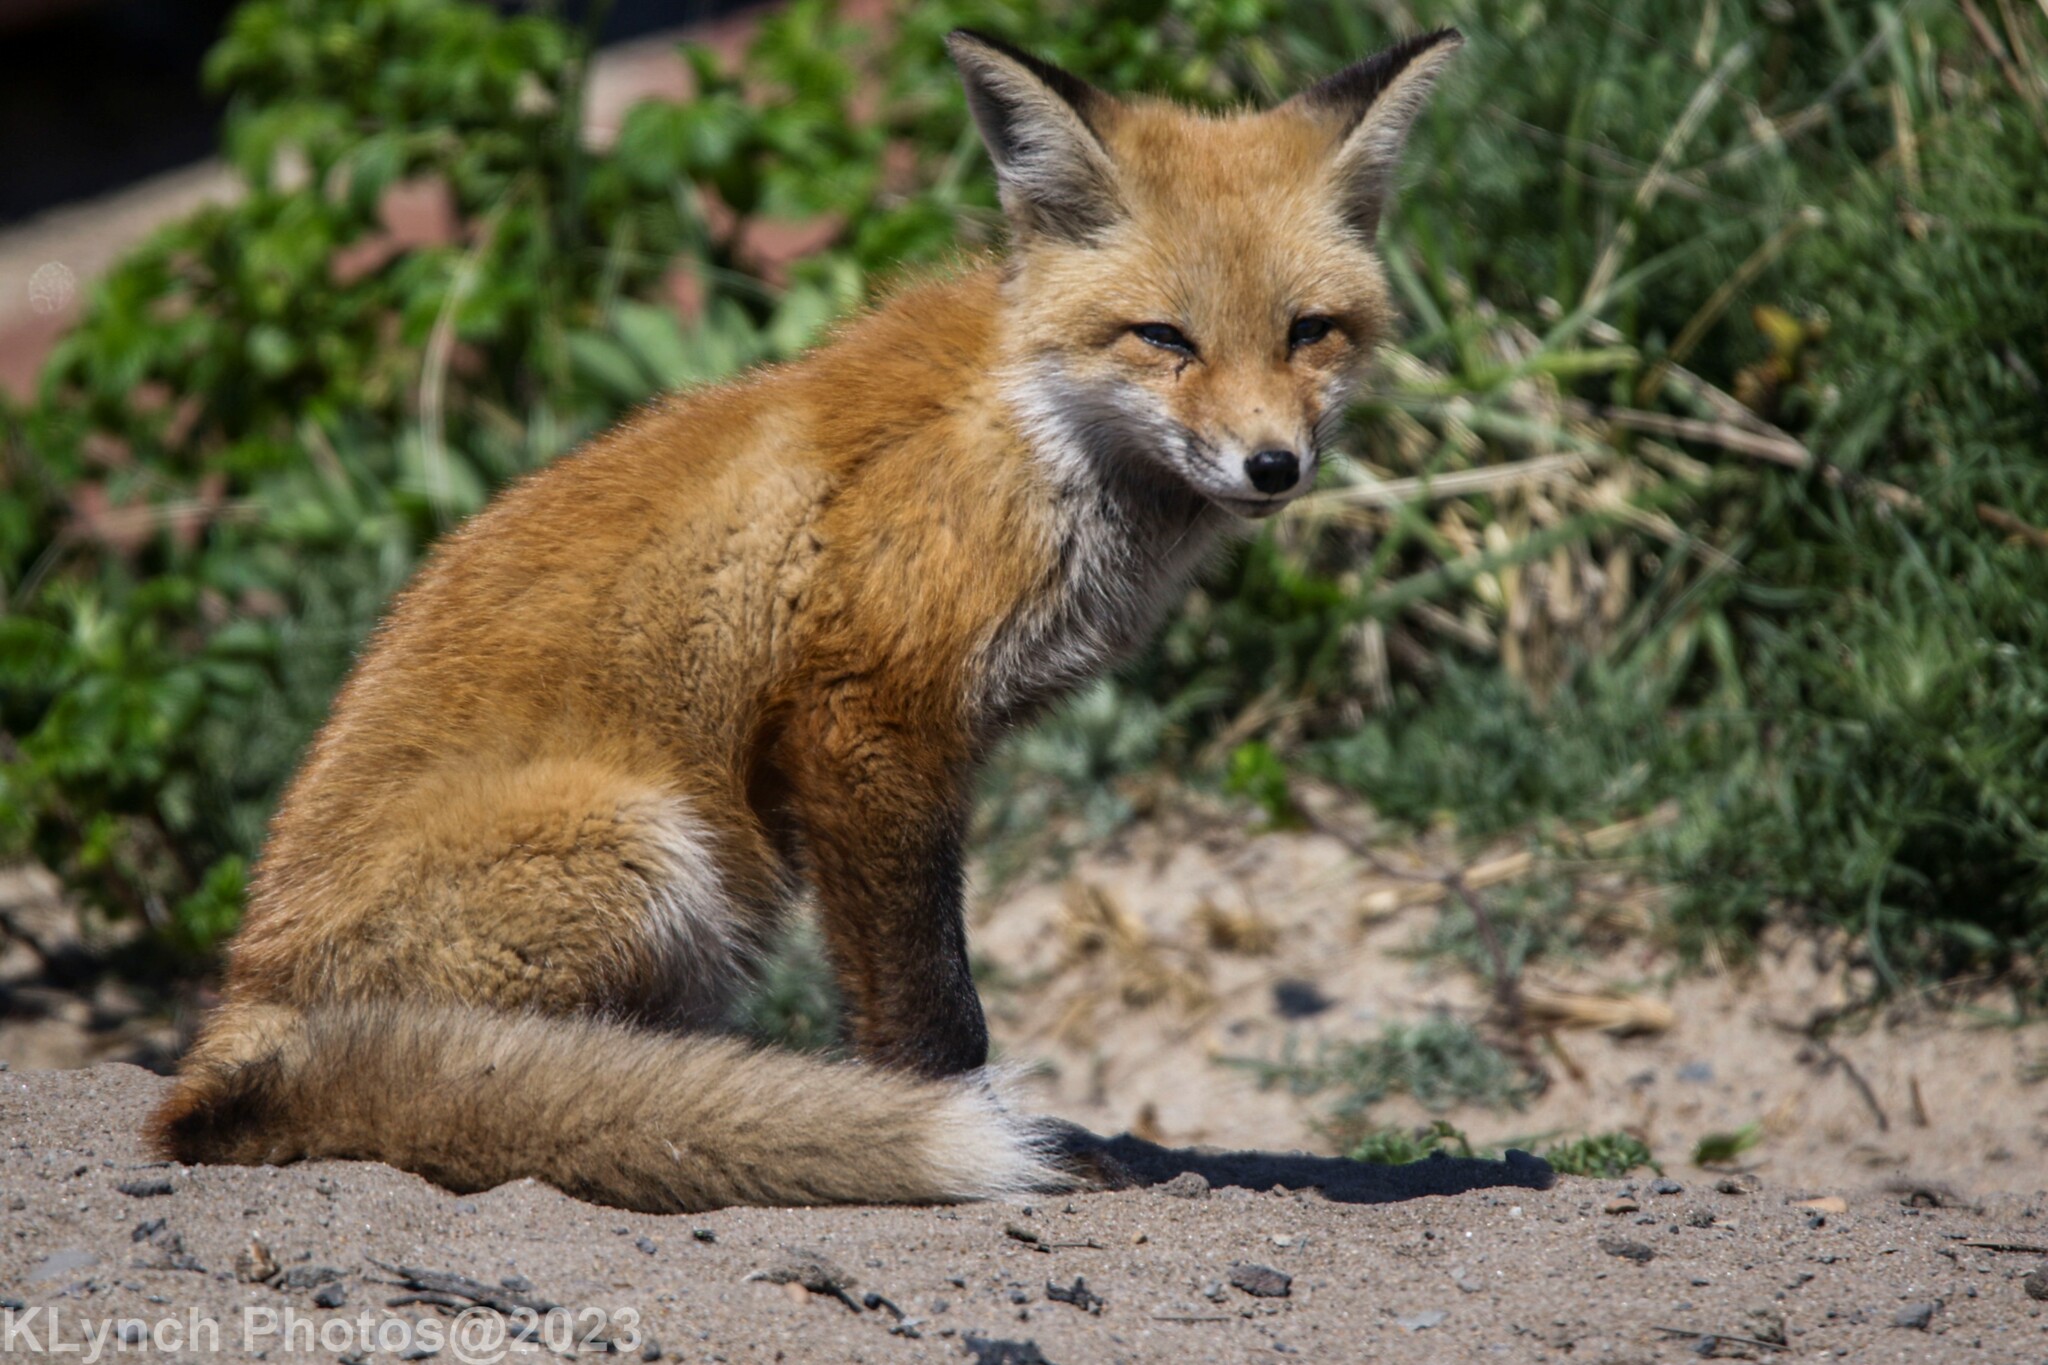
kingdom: Animalia
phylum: Chordata
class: Mammalia
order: Carnivora
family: Canidae
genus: Vulpes
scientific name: Vulpes vulpes
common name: Red fox
